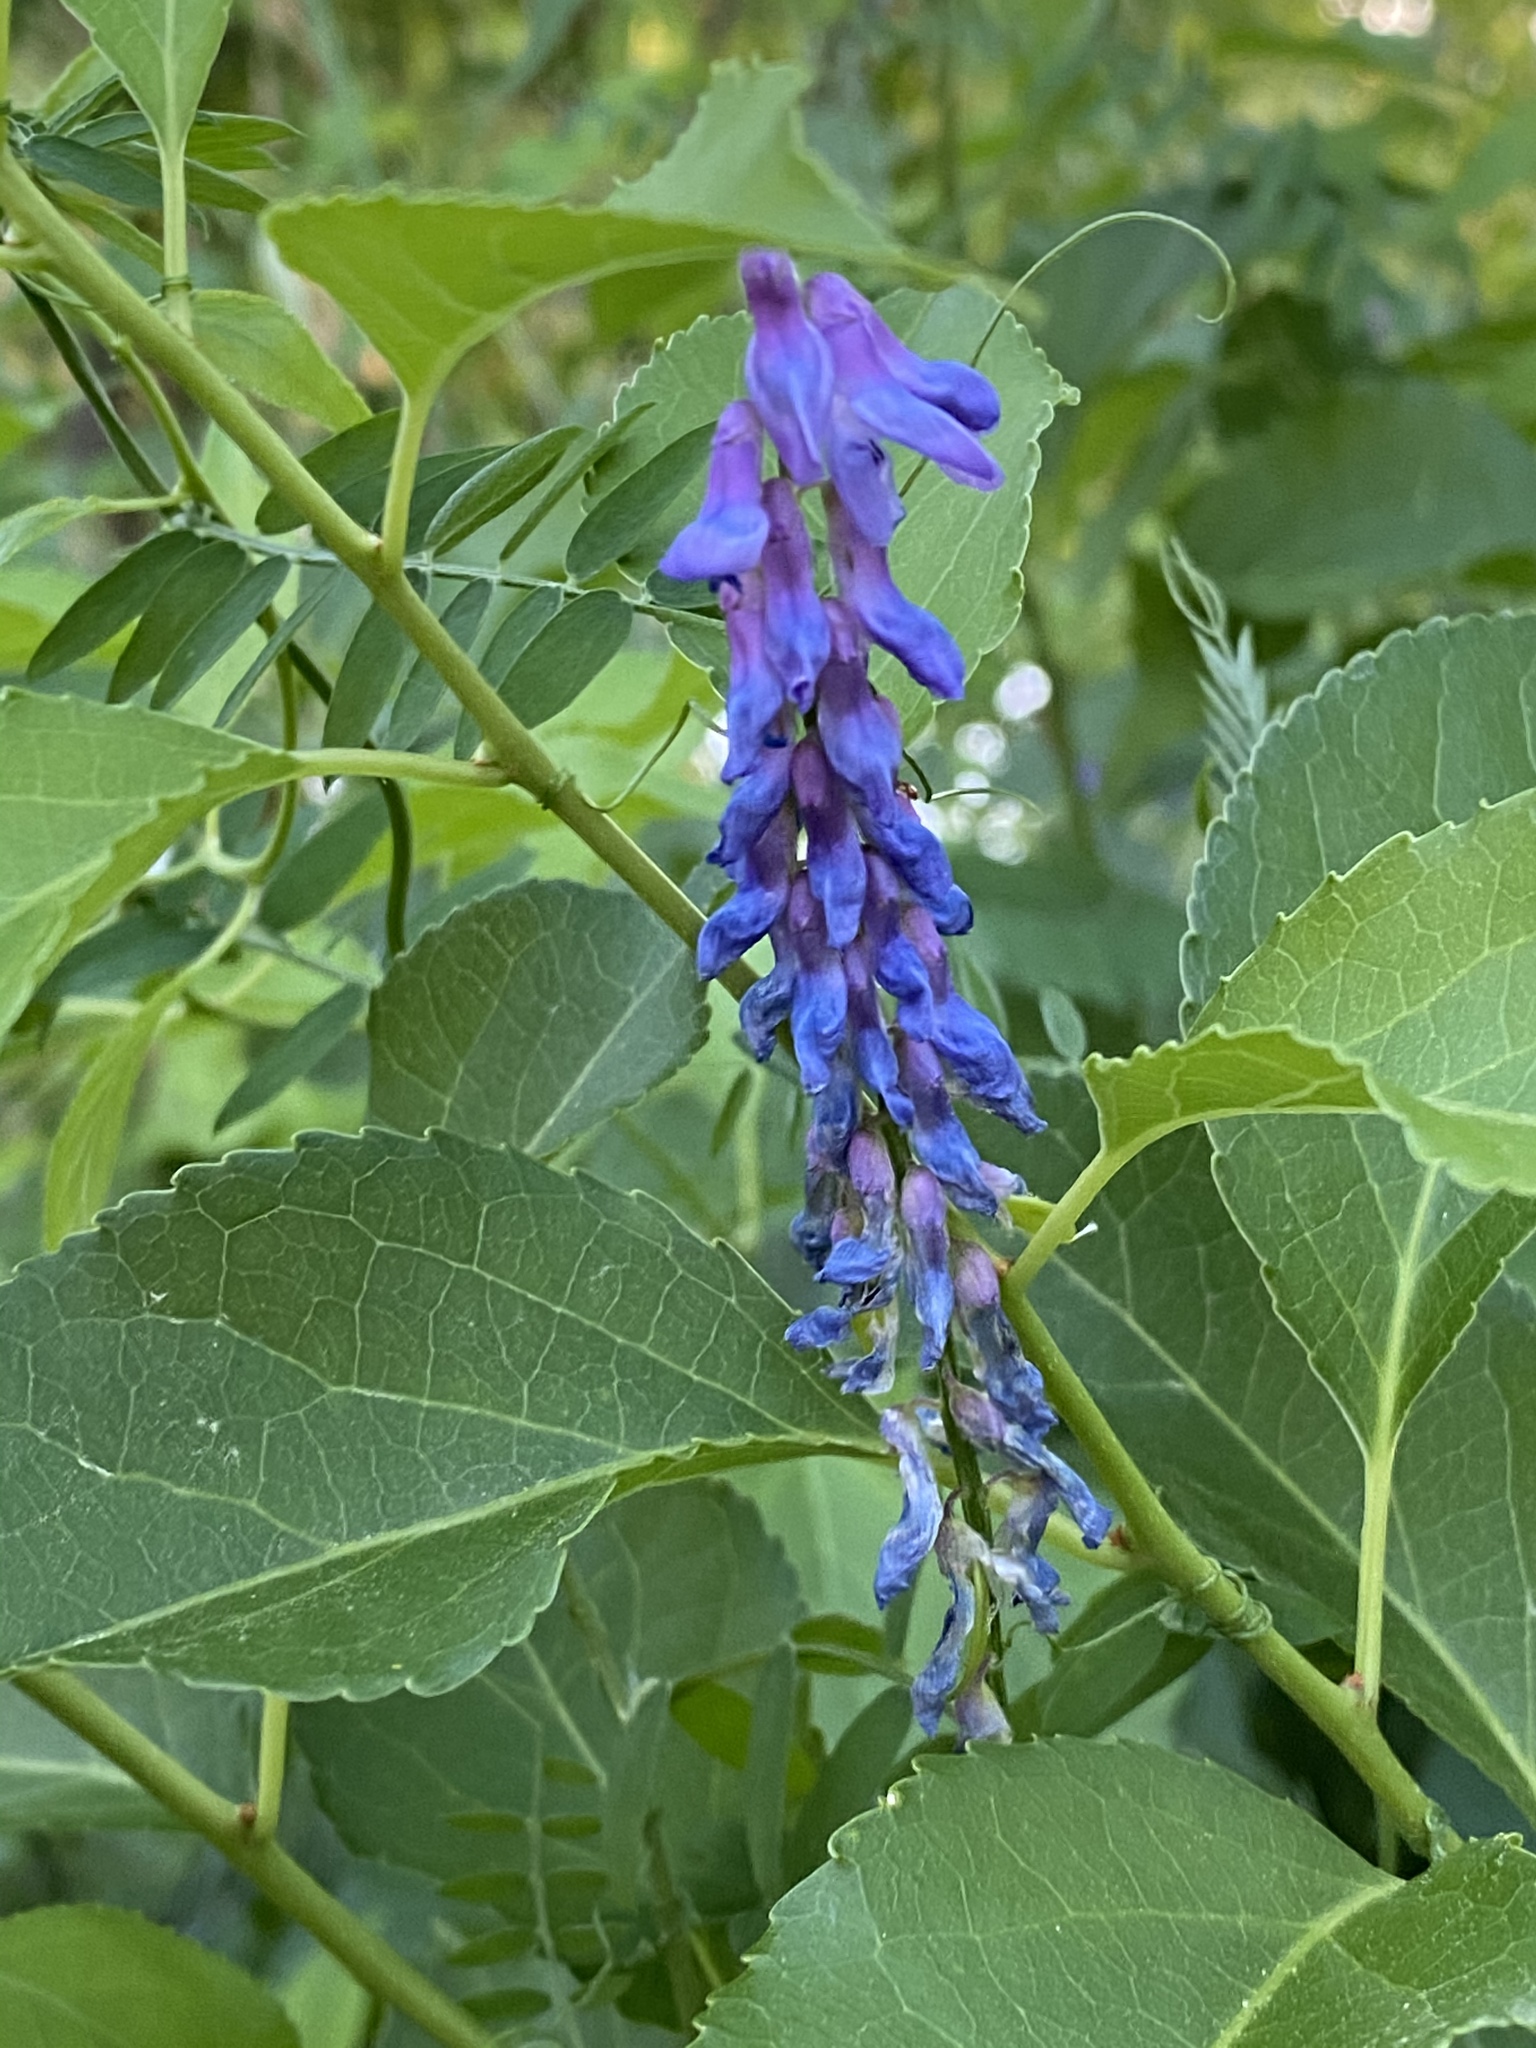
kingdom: Plantae
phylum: Tracheophyta
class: Magnoliopsida
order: Fabales
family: Fabaceae
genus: Vicia
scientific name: Vicia cracca
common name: Bird vetch
